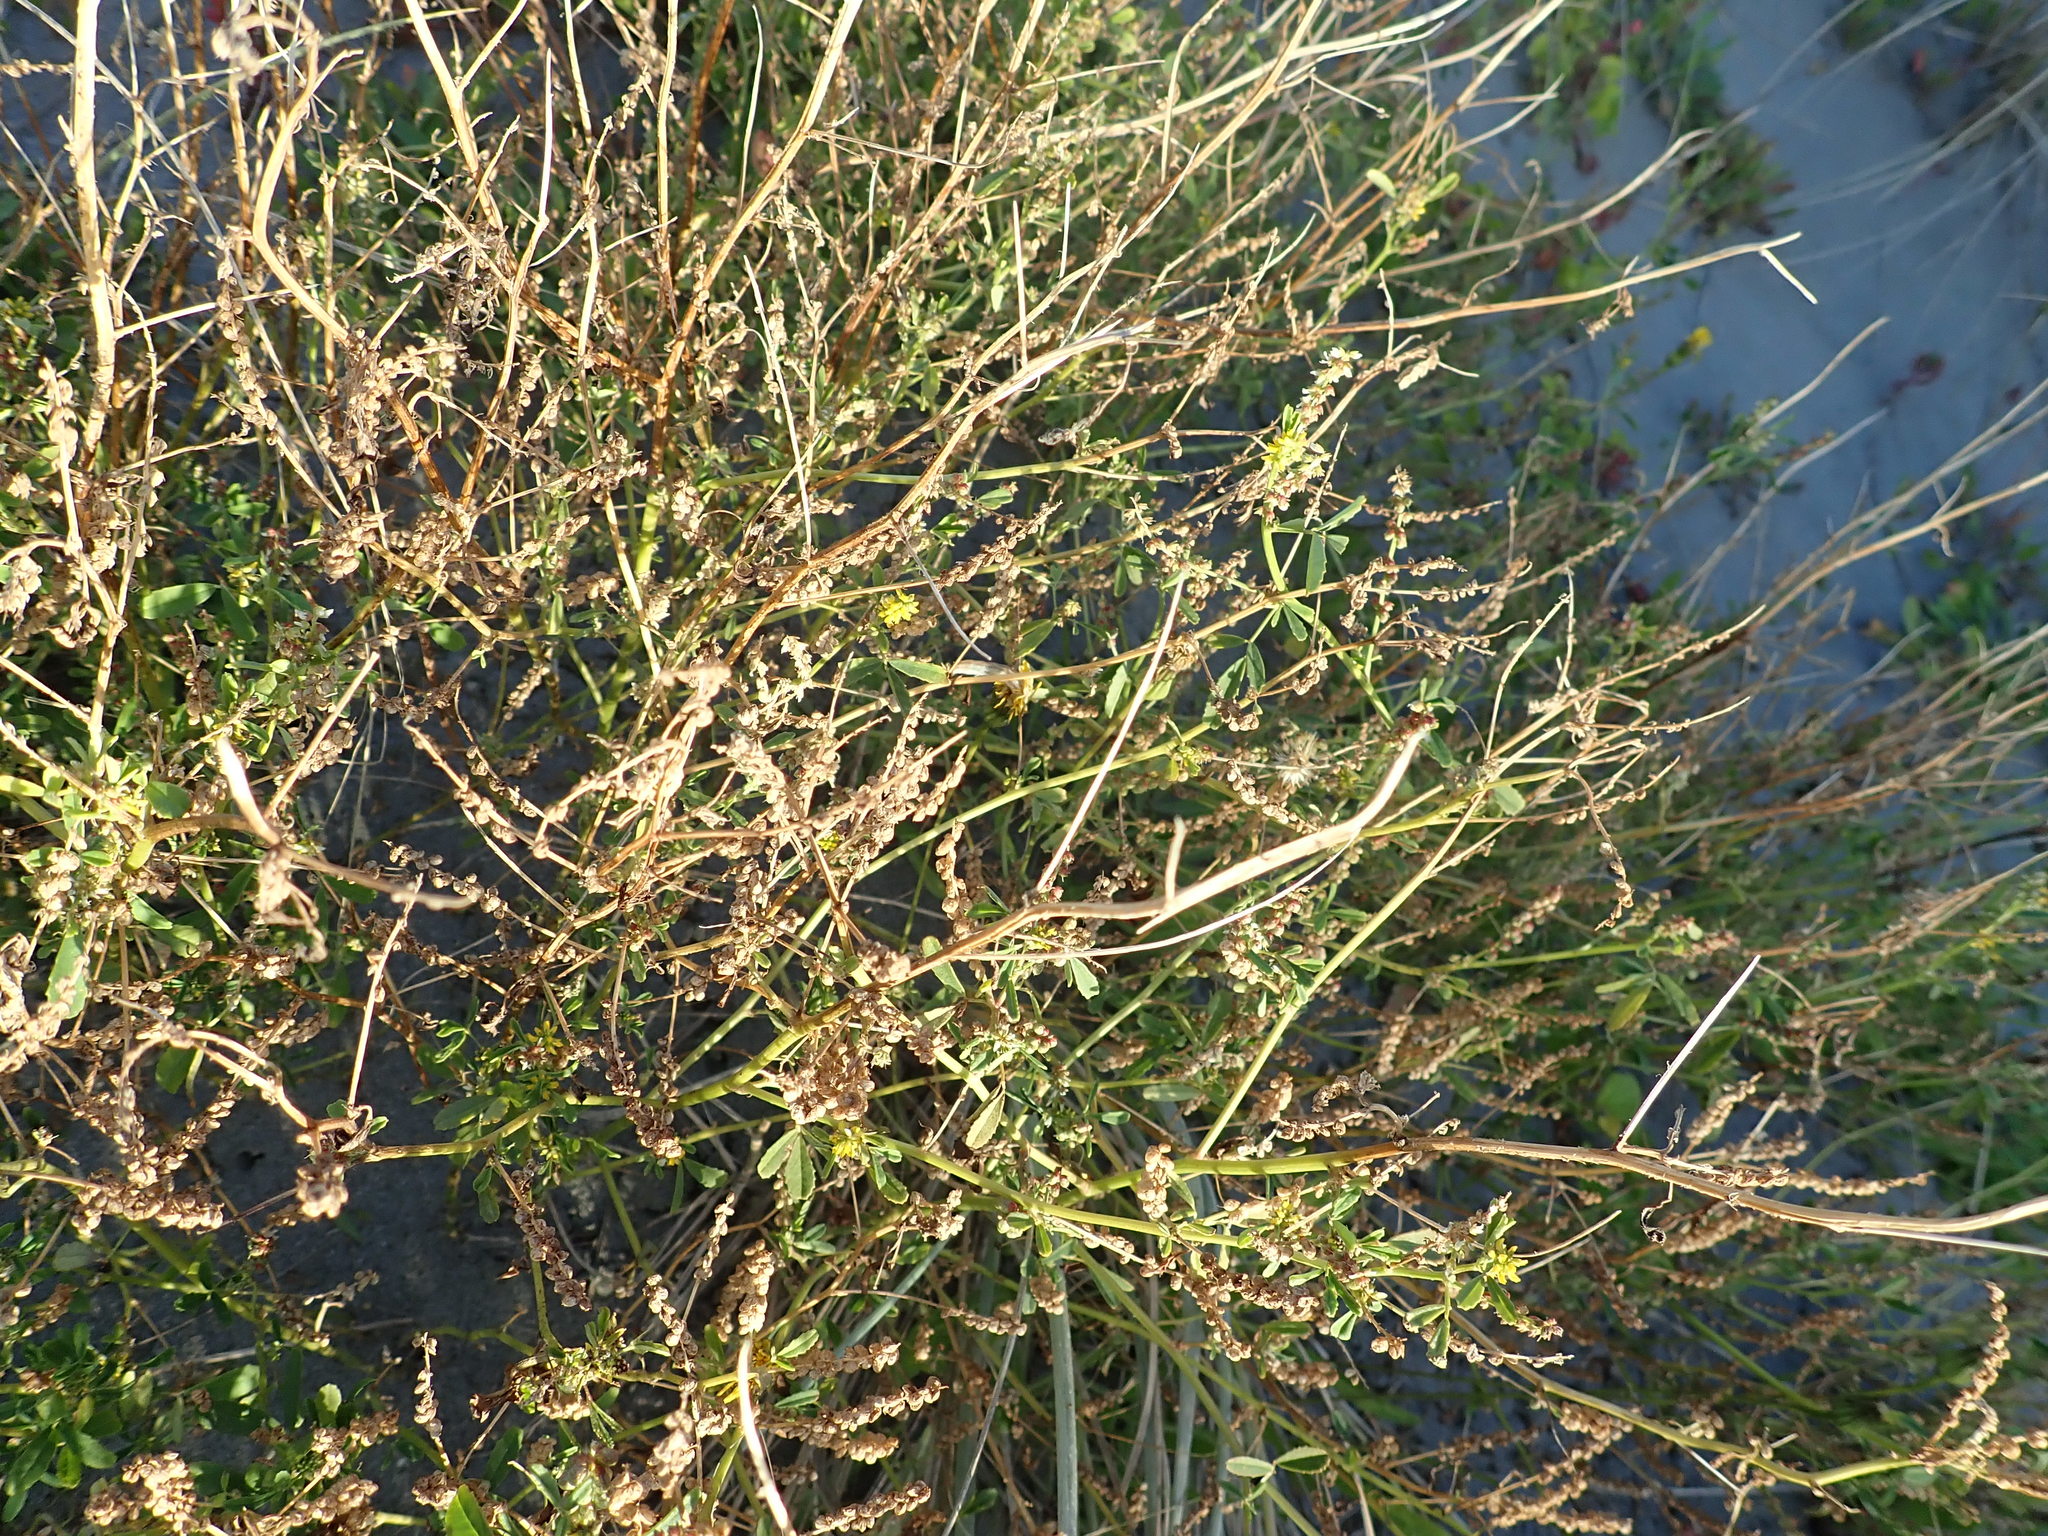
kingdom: Plantae
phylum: Tracheophyta
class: Magnoliopsida
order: Fabales
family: Fabaceae
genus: Melilotus
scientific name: Melilotus indicus
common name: Small melilot
